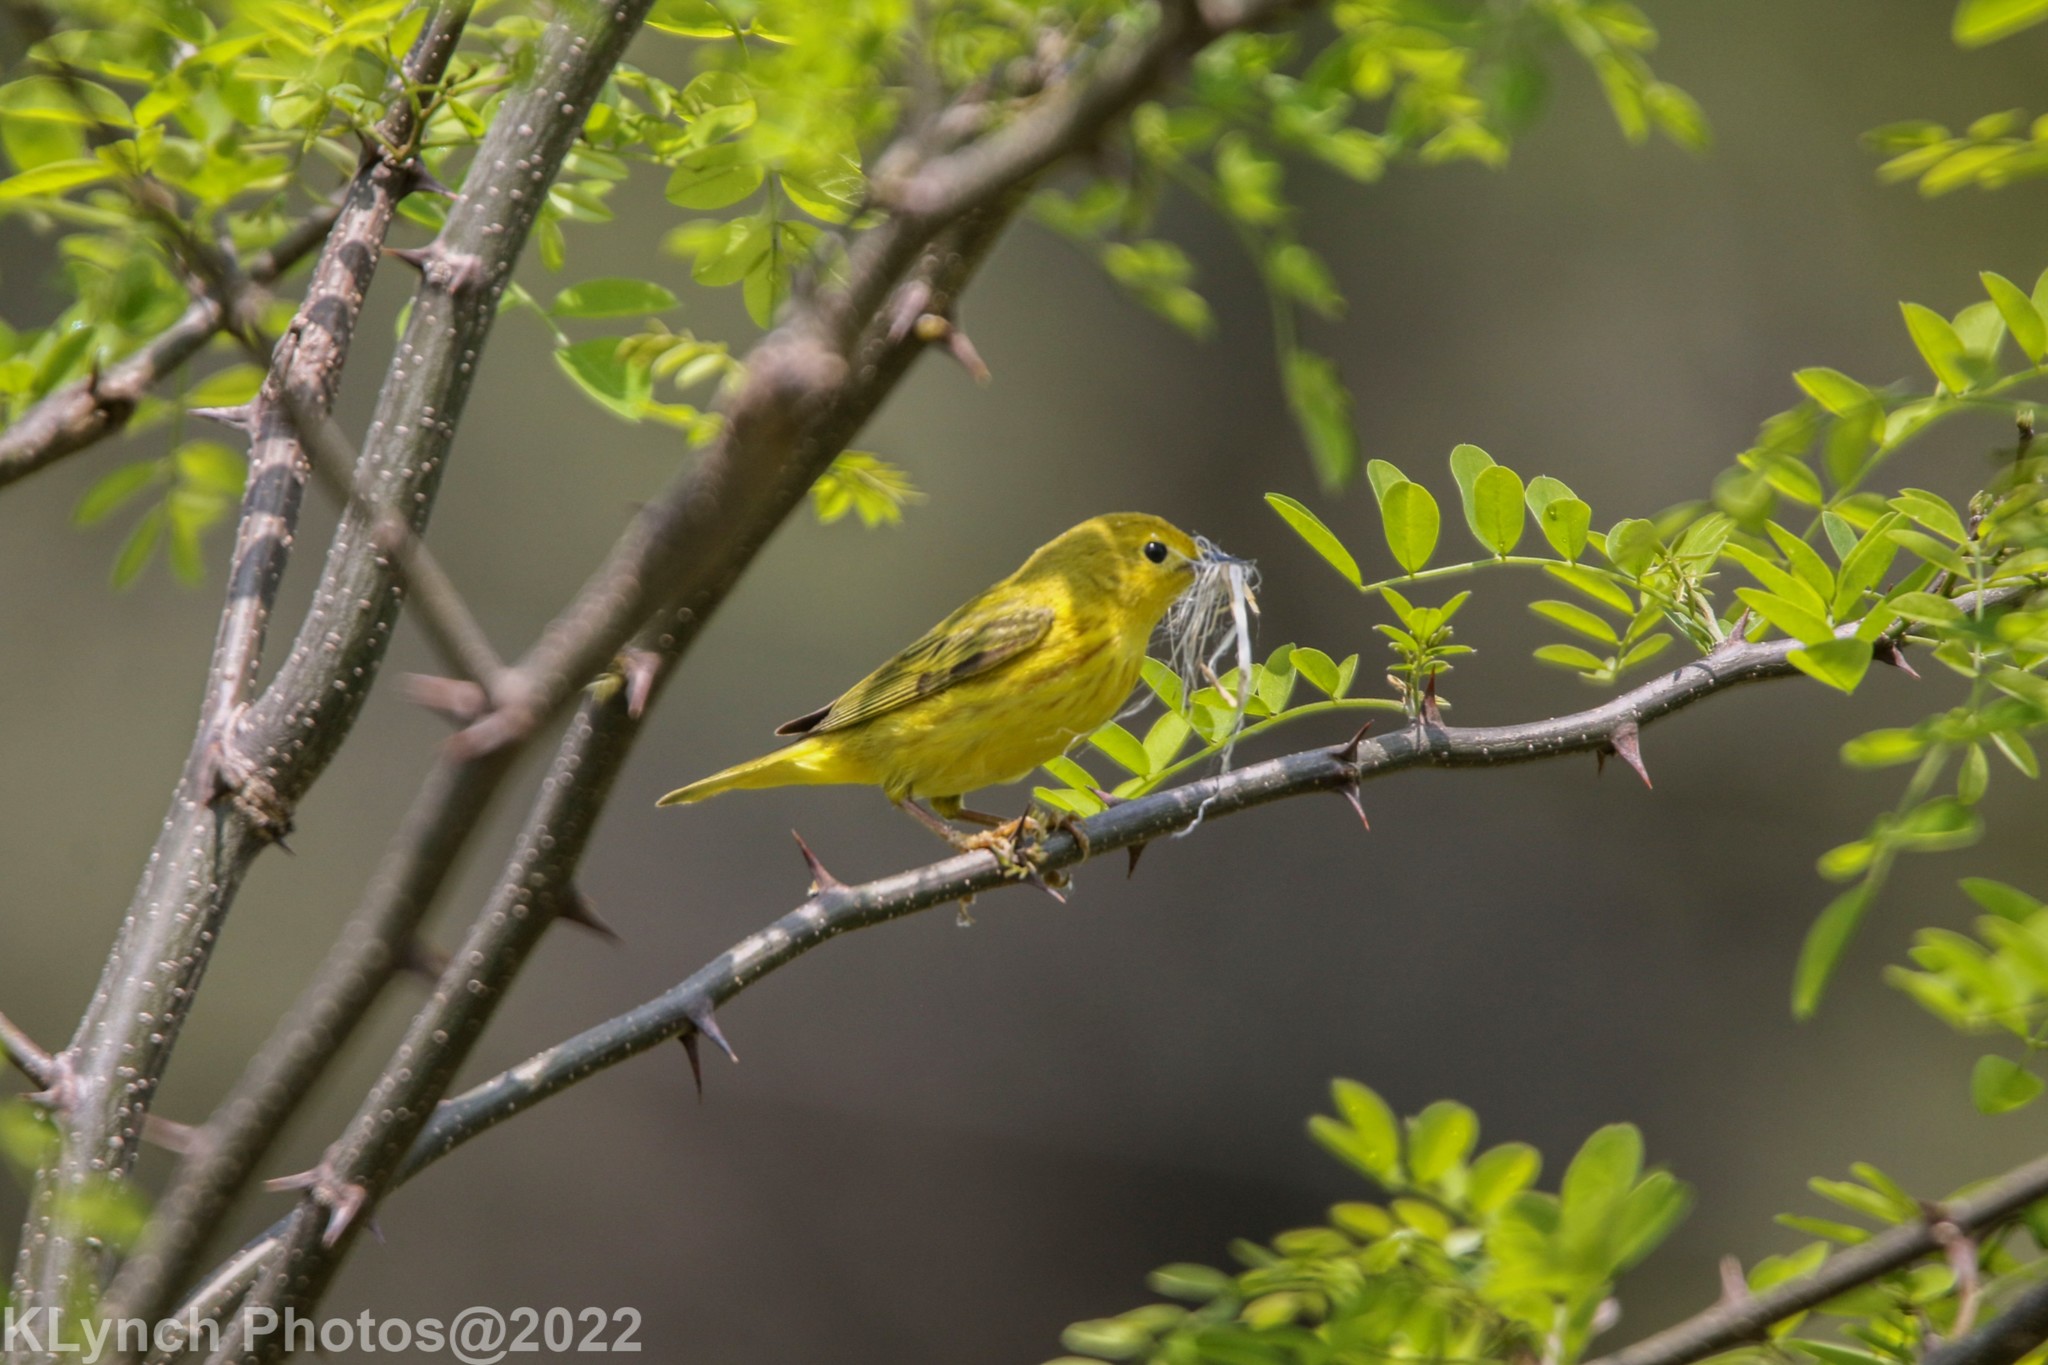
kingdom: Animalia
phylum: Chordata
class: Aves
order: Passeriformes
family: Parulidae
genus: Setophaga
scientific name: Setophaga petechia
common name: Yellow warbler
